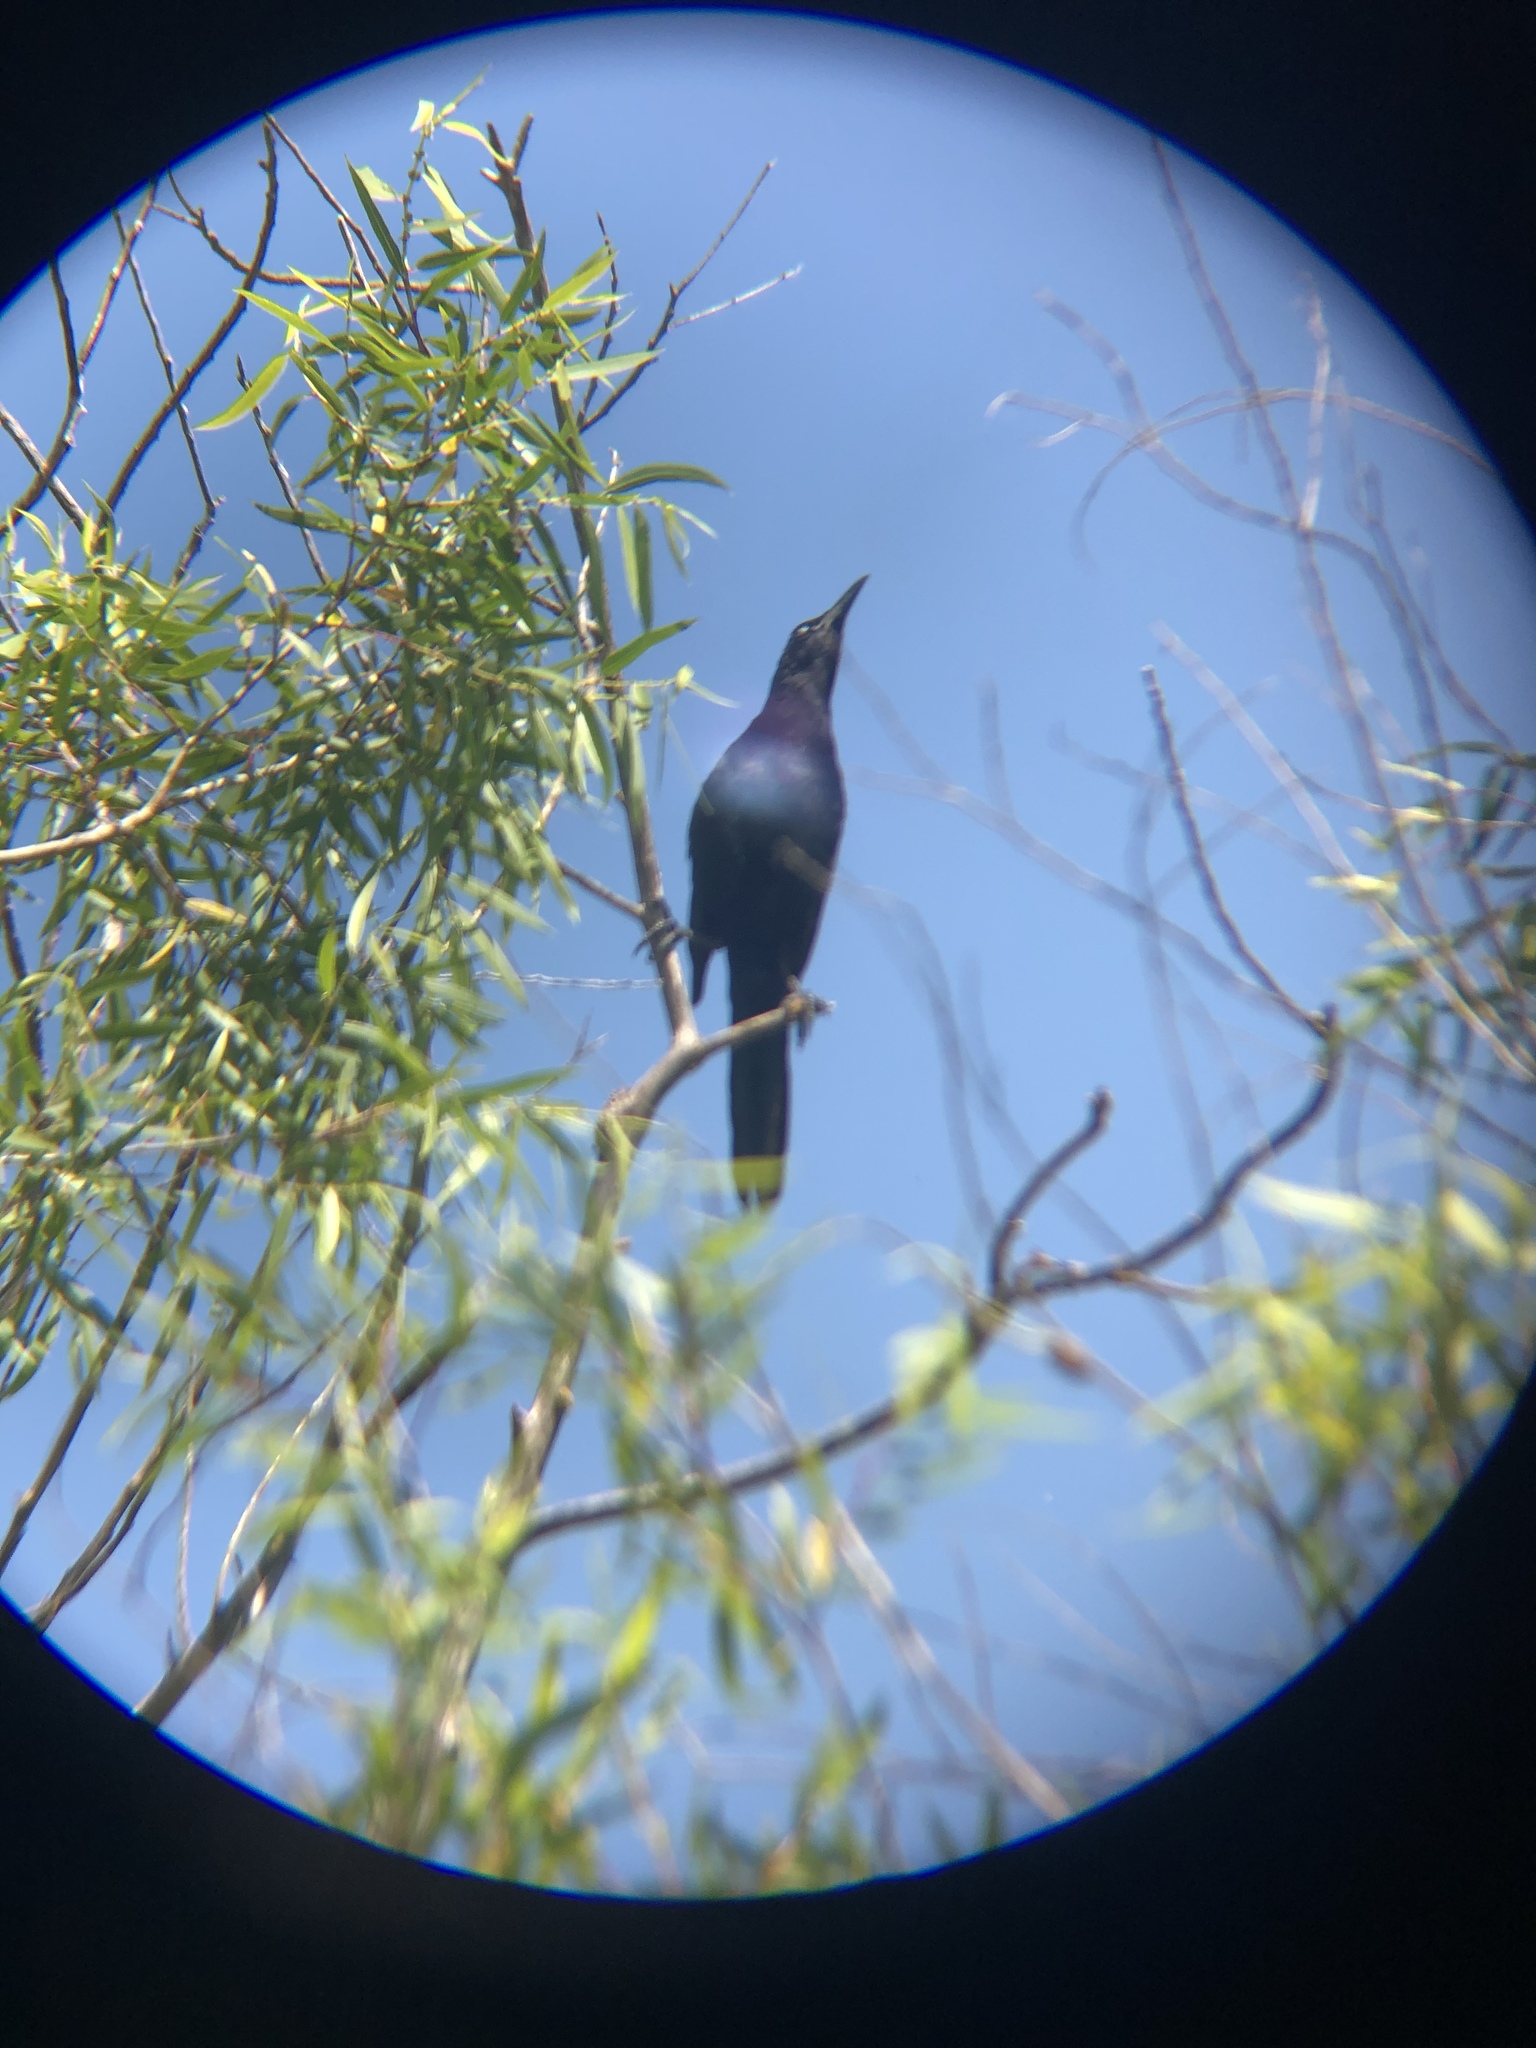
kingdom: Animalia
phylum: Chordata
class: Aves
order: Passeriformes
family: Icteridae
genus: Quiscalus
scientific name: Quiscalus mexicanus
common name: Great-tailed grackle
